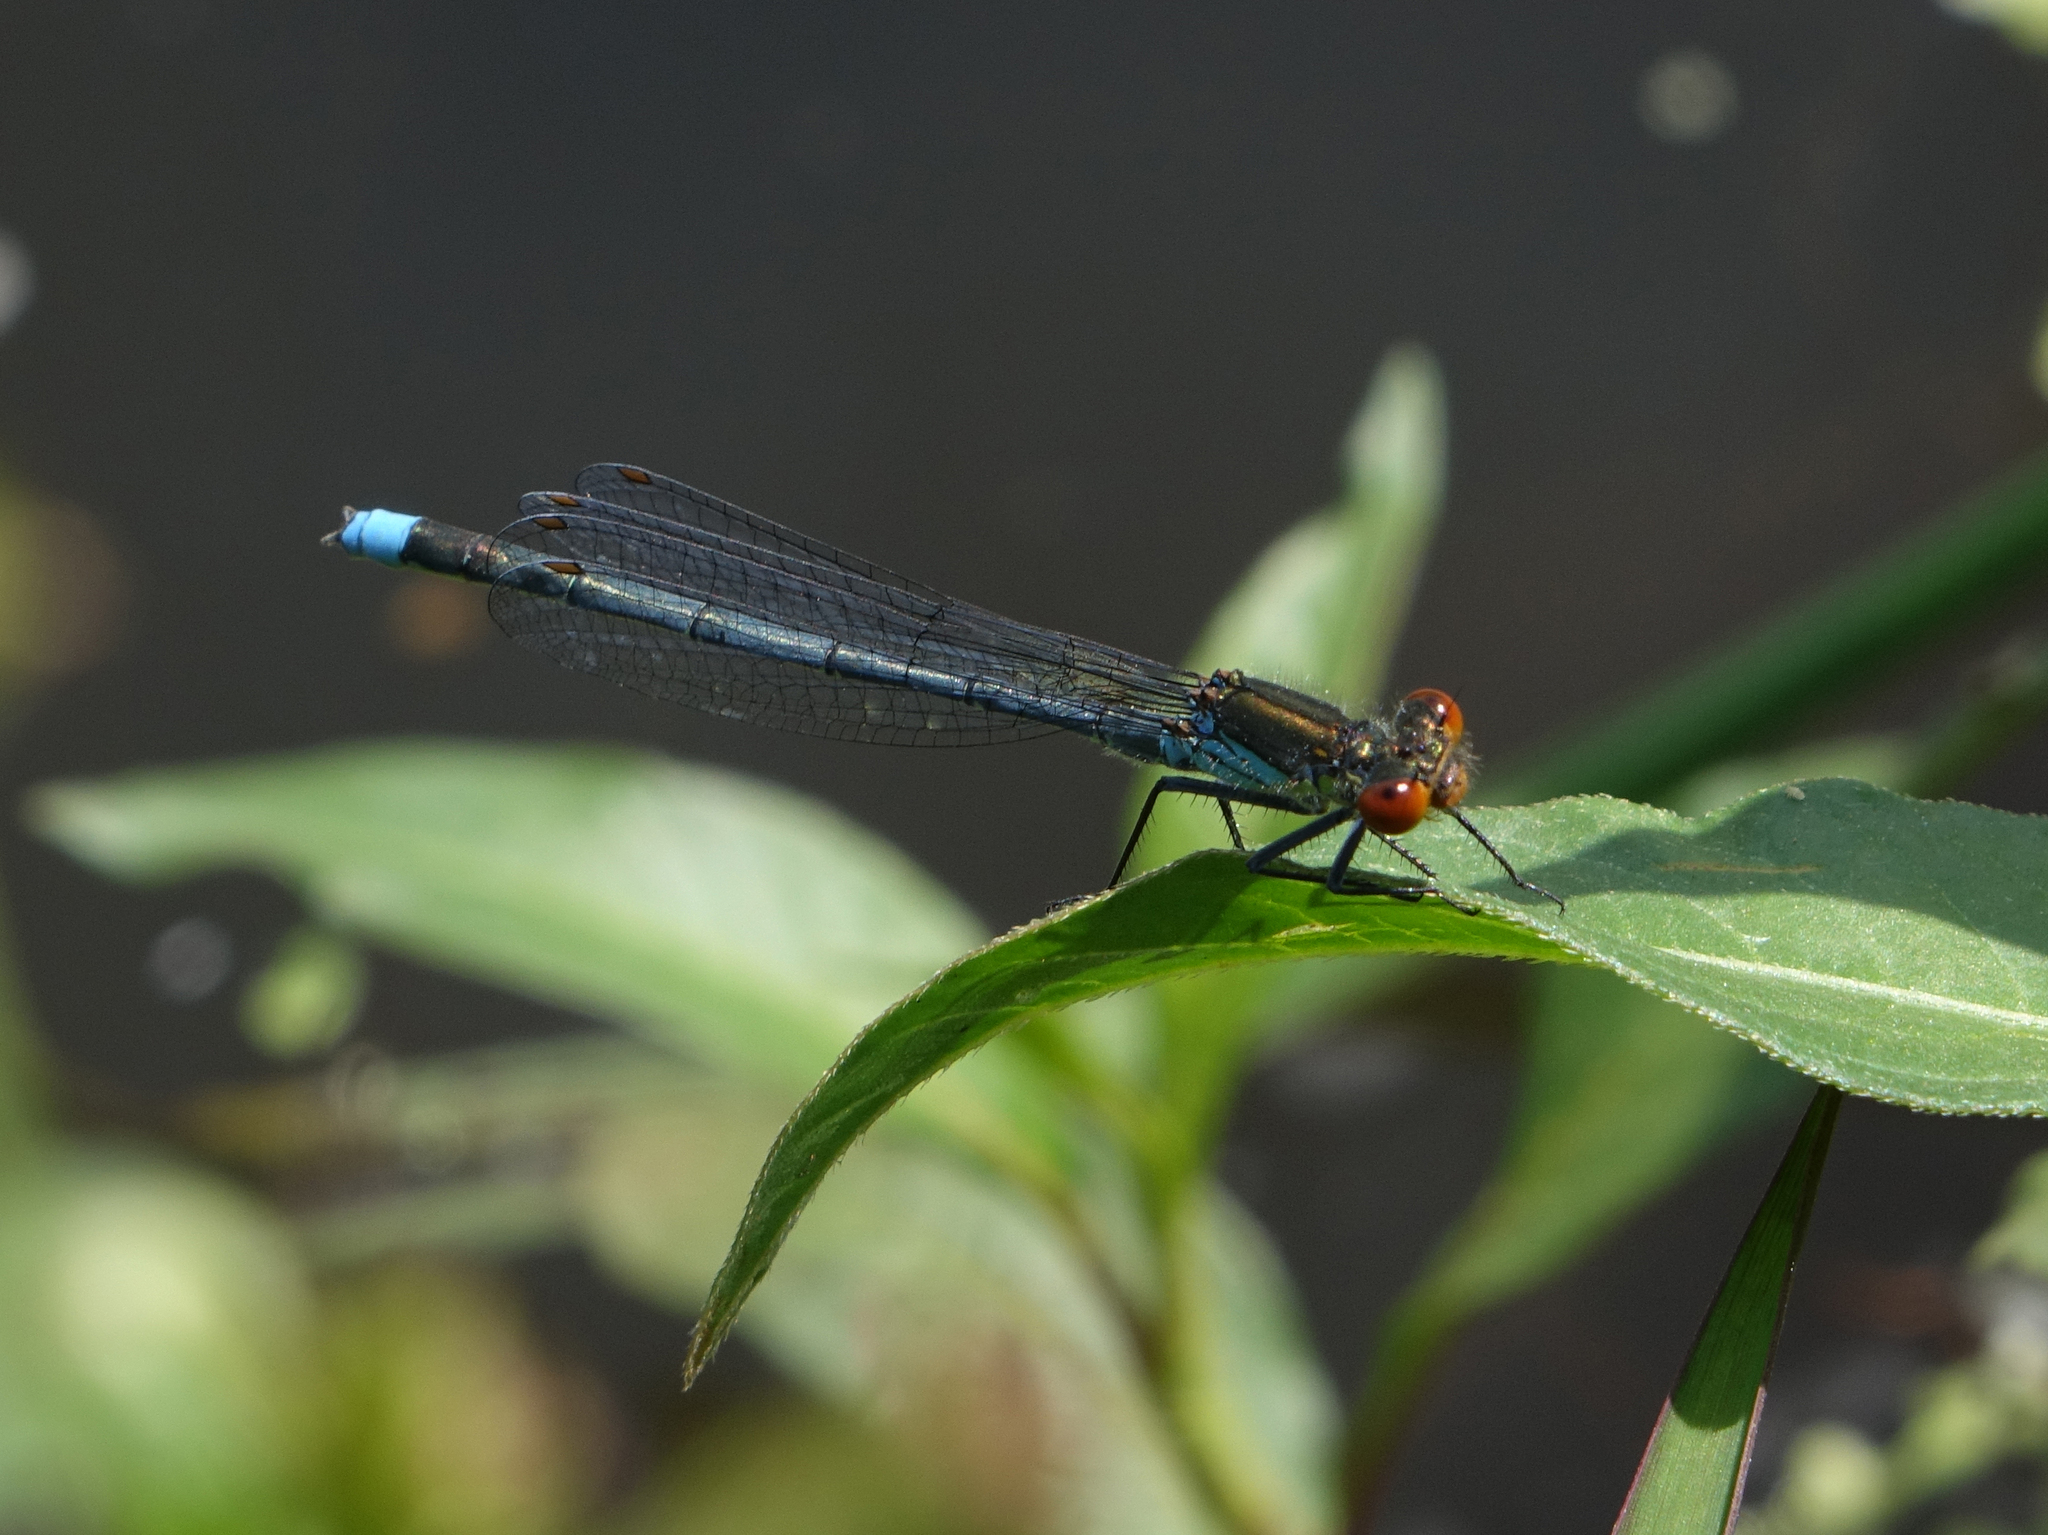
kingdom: Animalia
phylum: Arthropoda
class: Insecta
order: Odonata
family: Coenagrionidae
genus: Erythromma
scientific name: Erythromma najas
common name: Red-eyed damselfly
